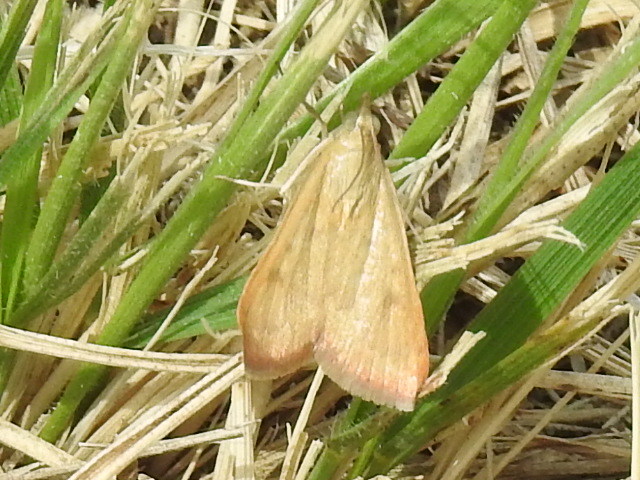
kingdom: Animalia
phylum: Arthropoda
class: Insecta
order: Lepidoptera
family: Crambidae
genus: Achyra
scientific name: Achyra rantalis
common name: Garden webworm
